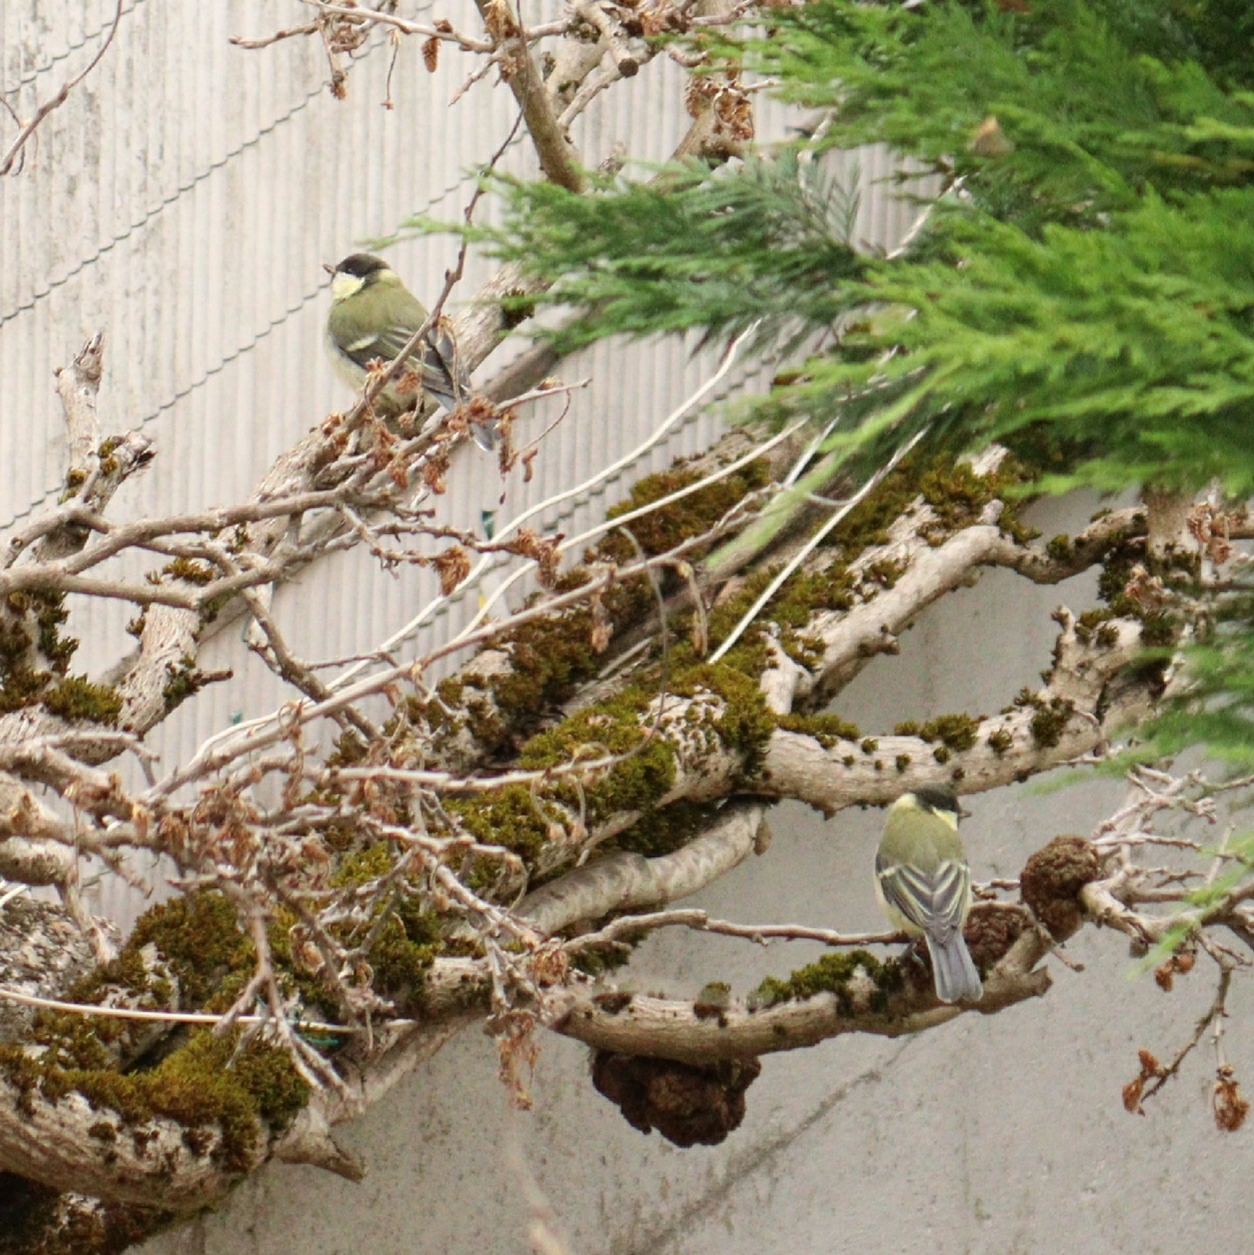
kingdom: Animalia
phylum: Chordata
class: Aves
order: Passeriformes
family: Paridae
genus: Parus
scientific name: Parus major
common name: Great tit
